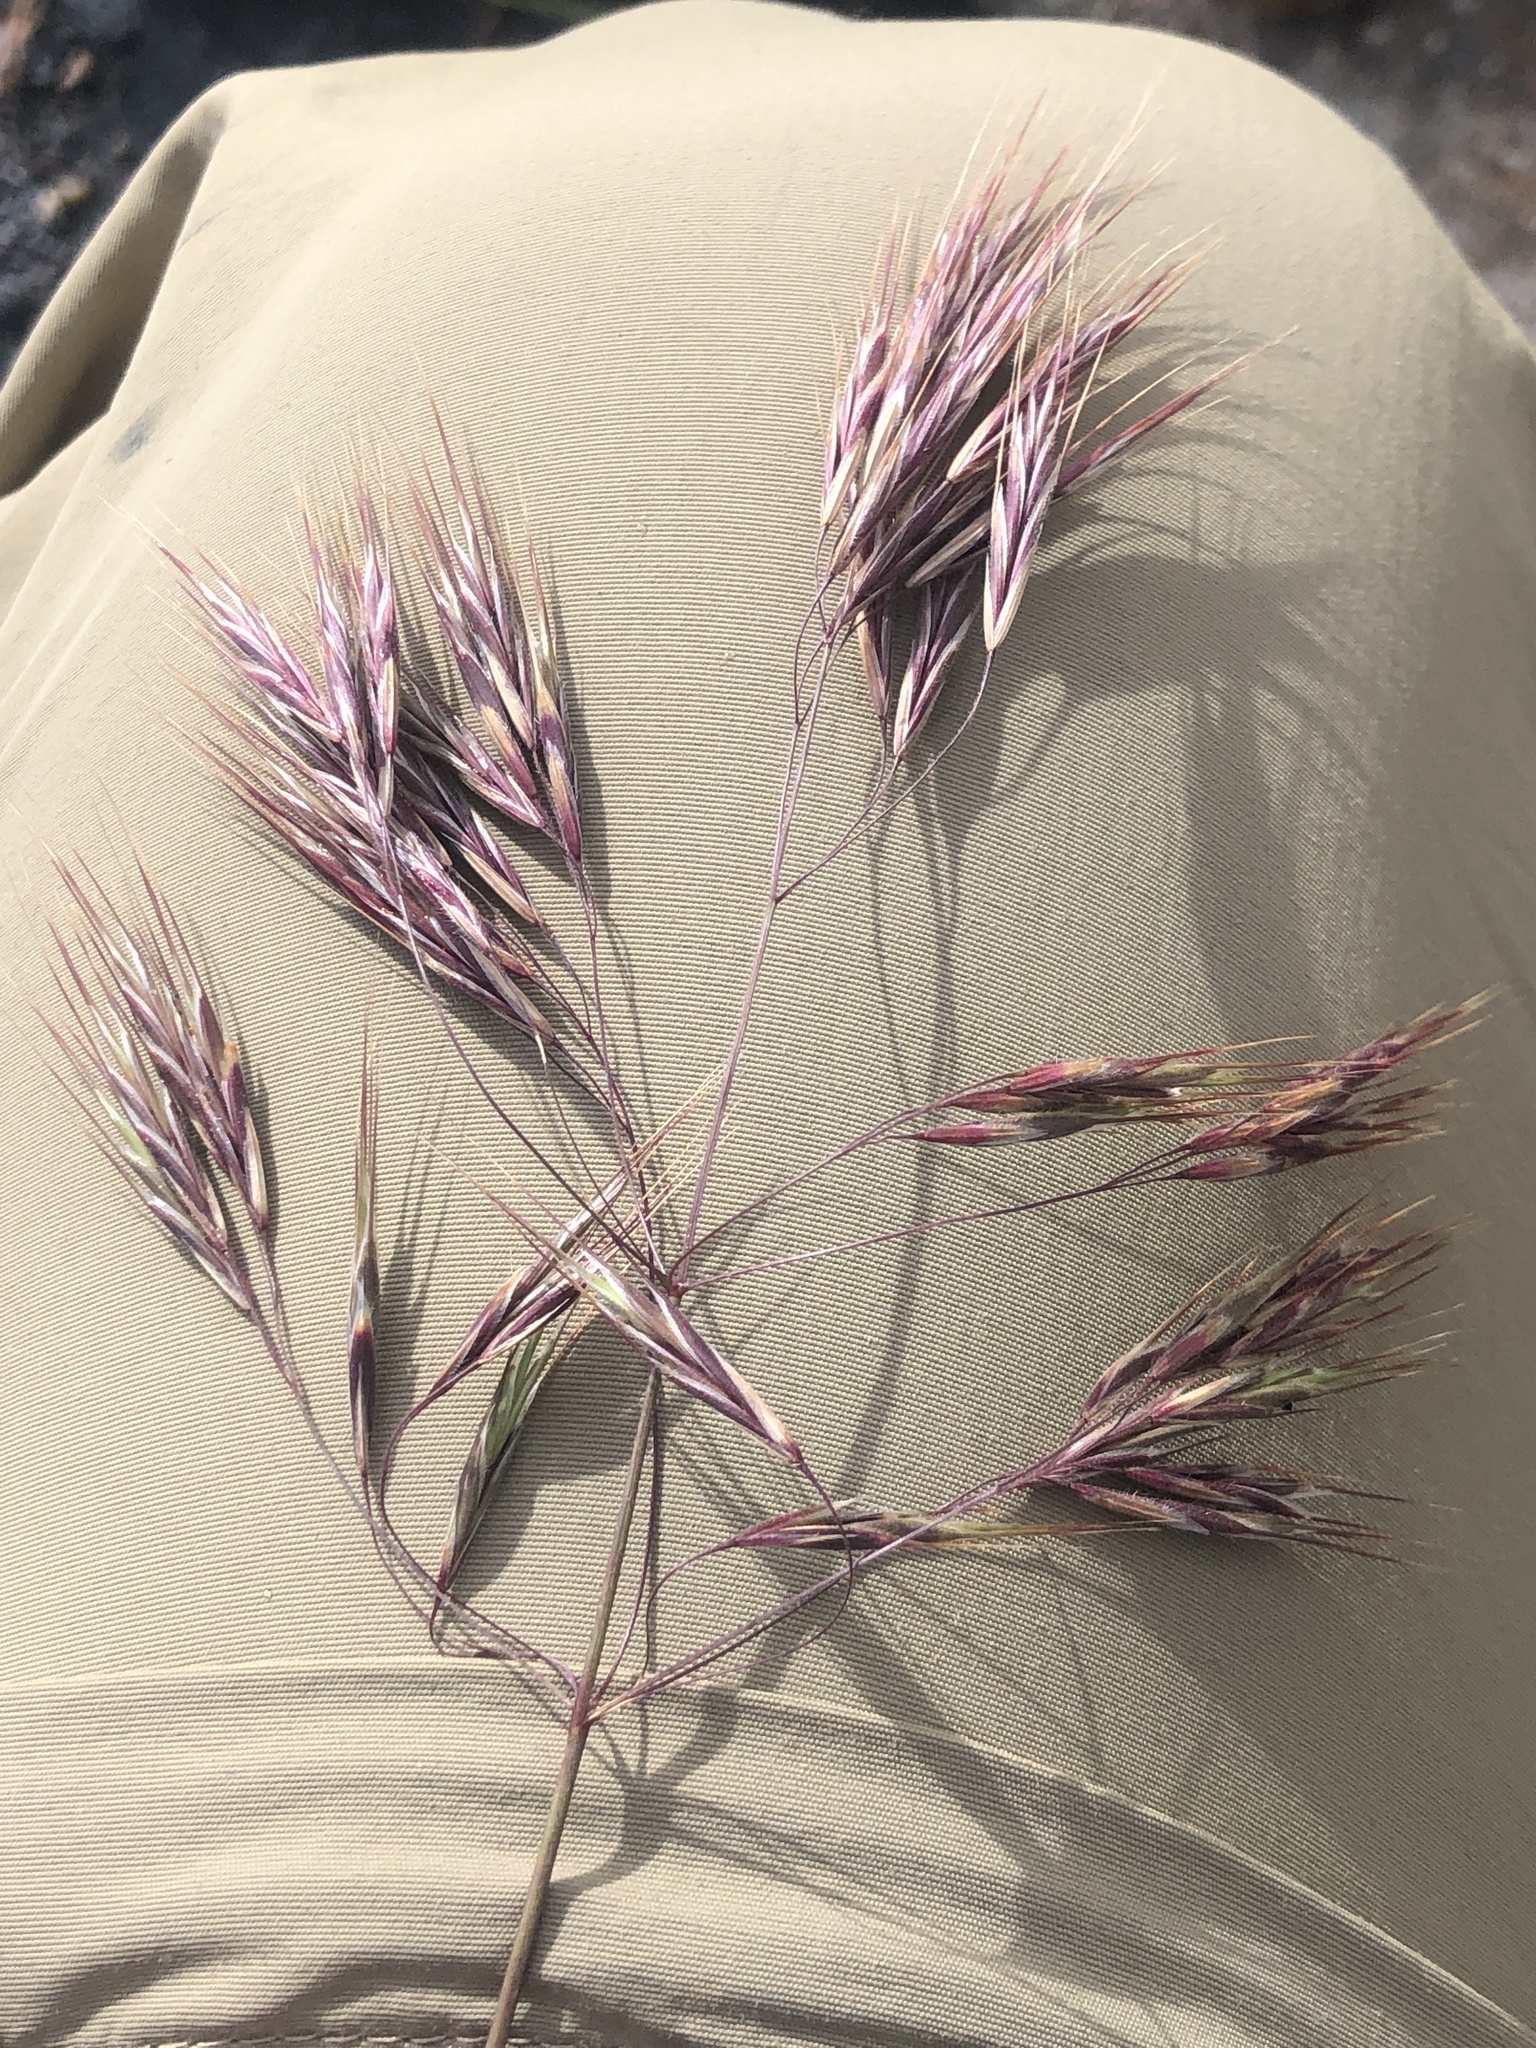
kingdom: Plantae
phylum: Tracheophyta
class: Liliopsida
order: Poales
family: Poaceae
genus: Bromus
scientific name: Bromus tectorum
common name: Cheatgrass
